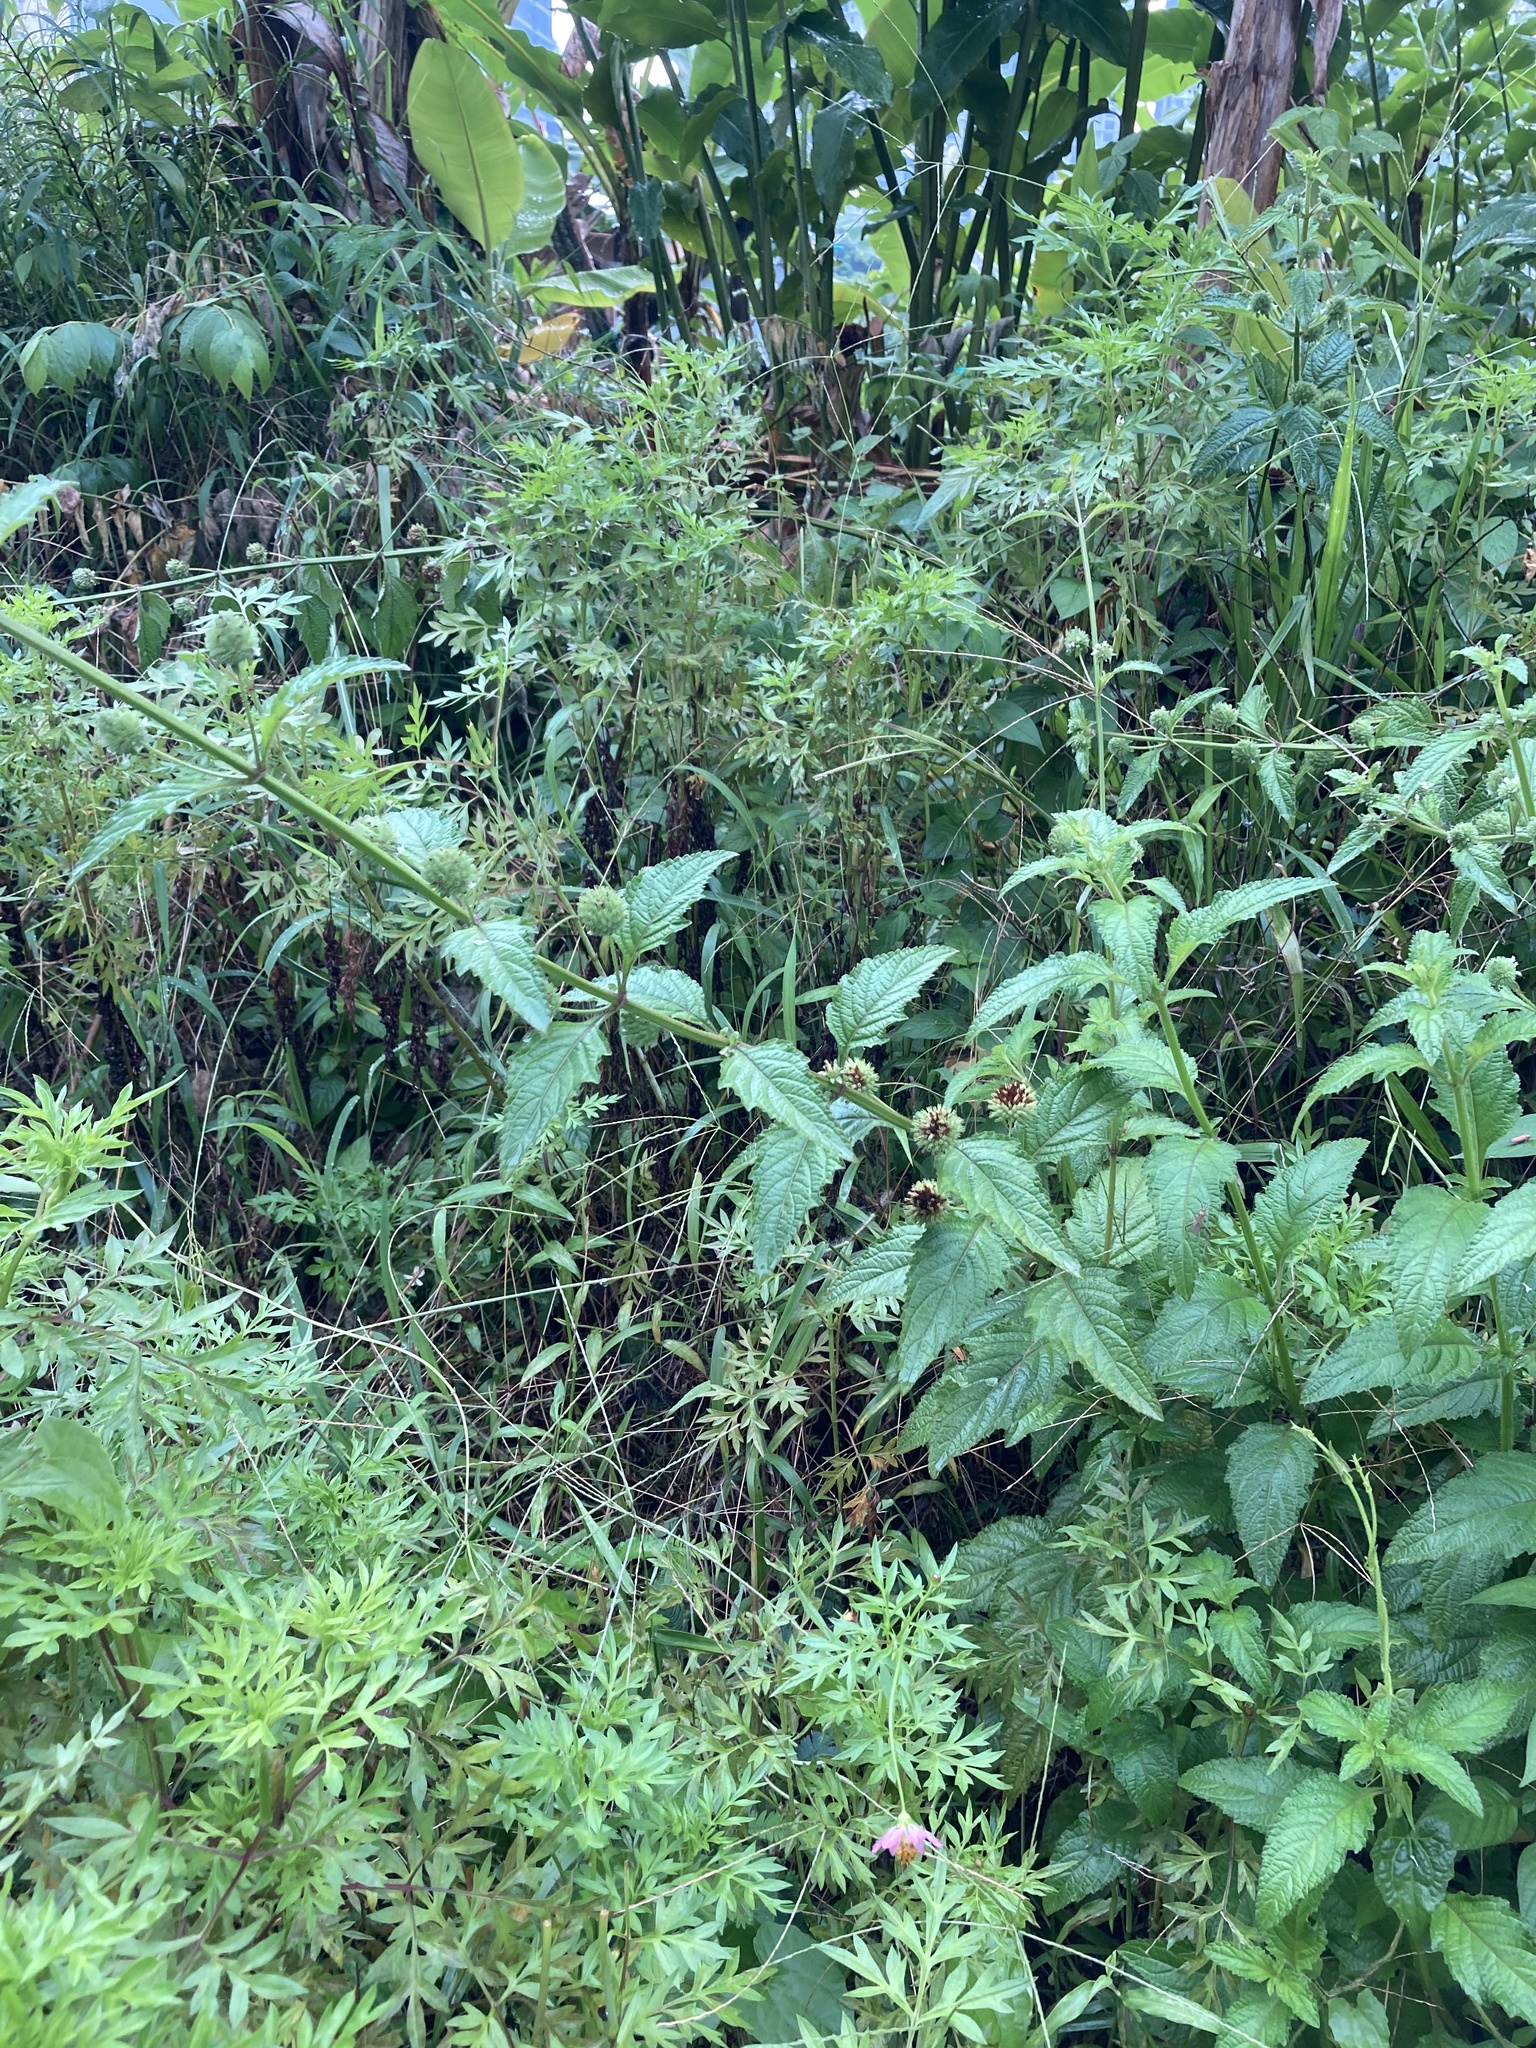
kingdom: Plantae
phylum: Tracheophyta
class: Magnoliopsida
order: Lamiales
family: Lamiaceae
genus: Hyptis
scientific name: Hyptis capitata
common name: False ironwort
